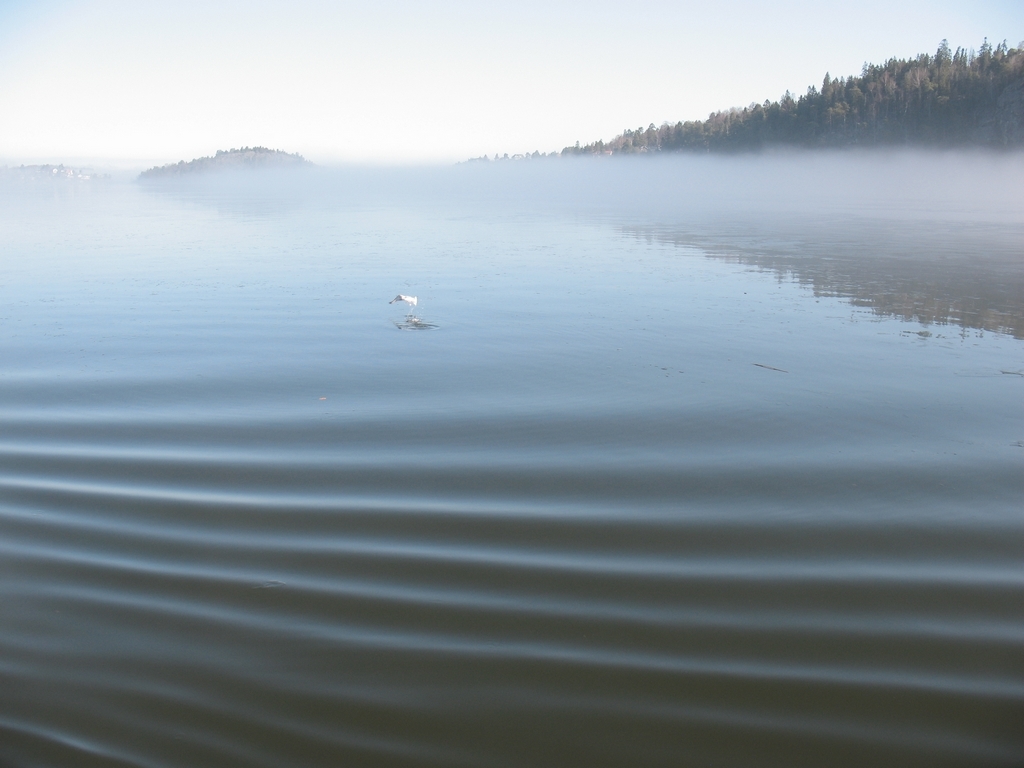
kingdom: Animalia
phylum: Chordata
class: Aves
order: Charadriiformes
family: Laridae
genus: Larus
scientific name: Larus canus
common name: Mew gull
